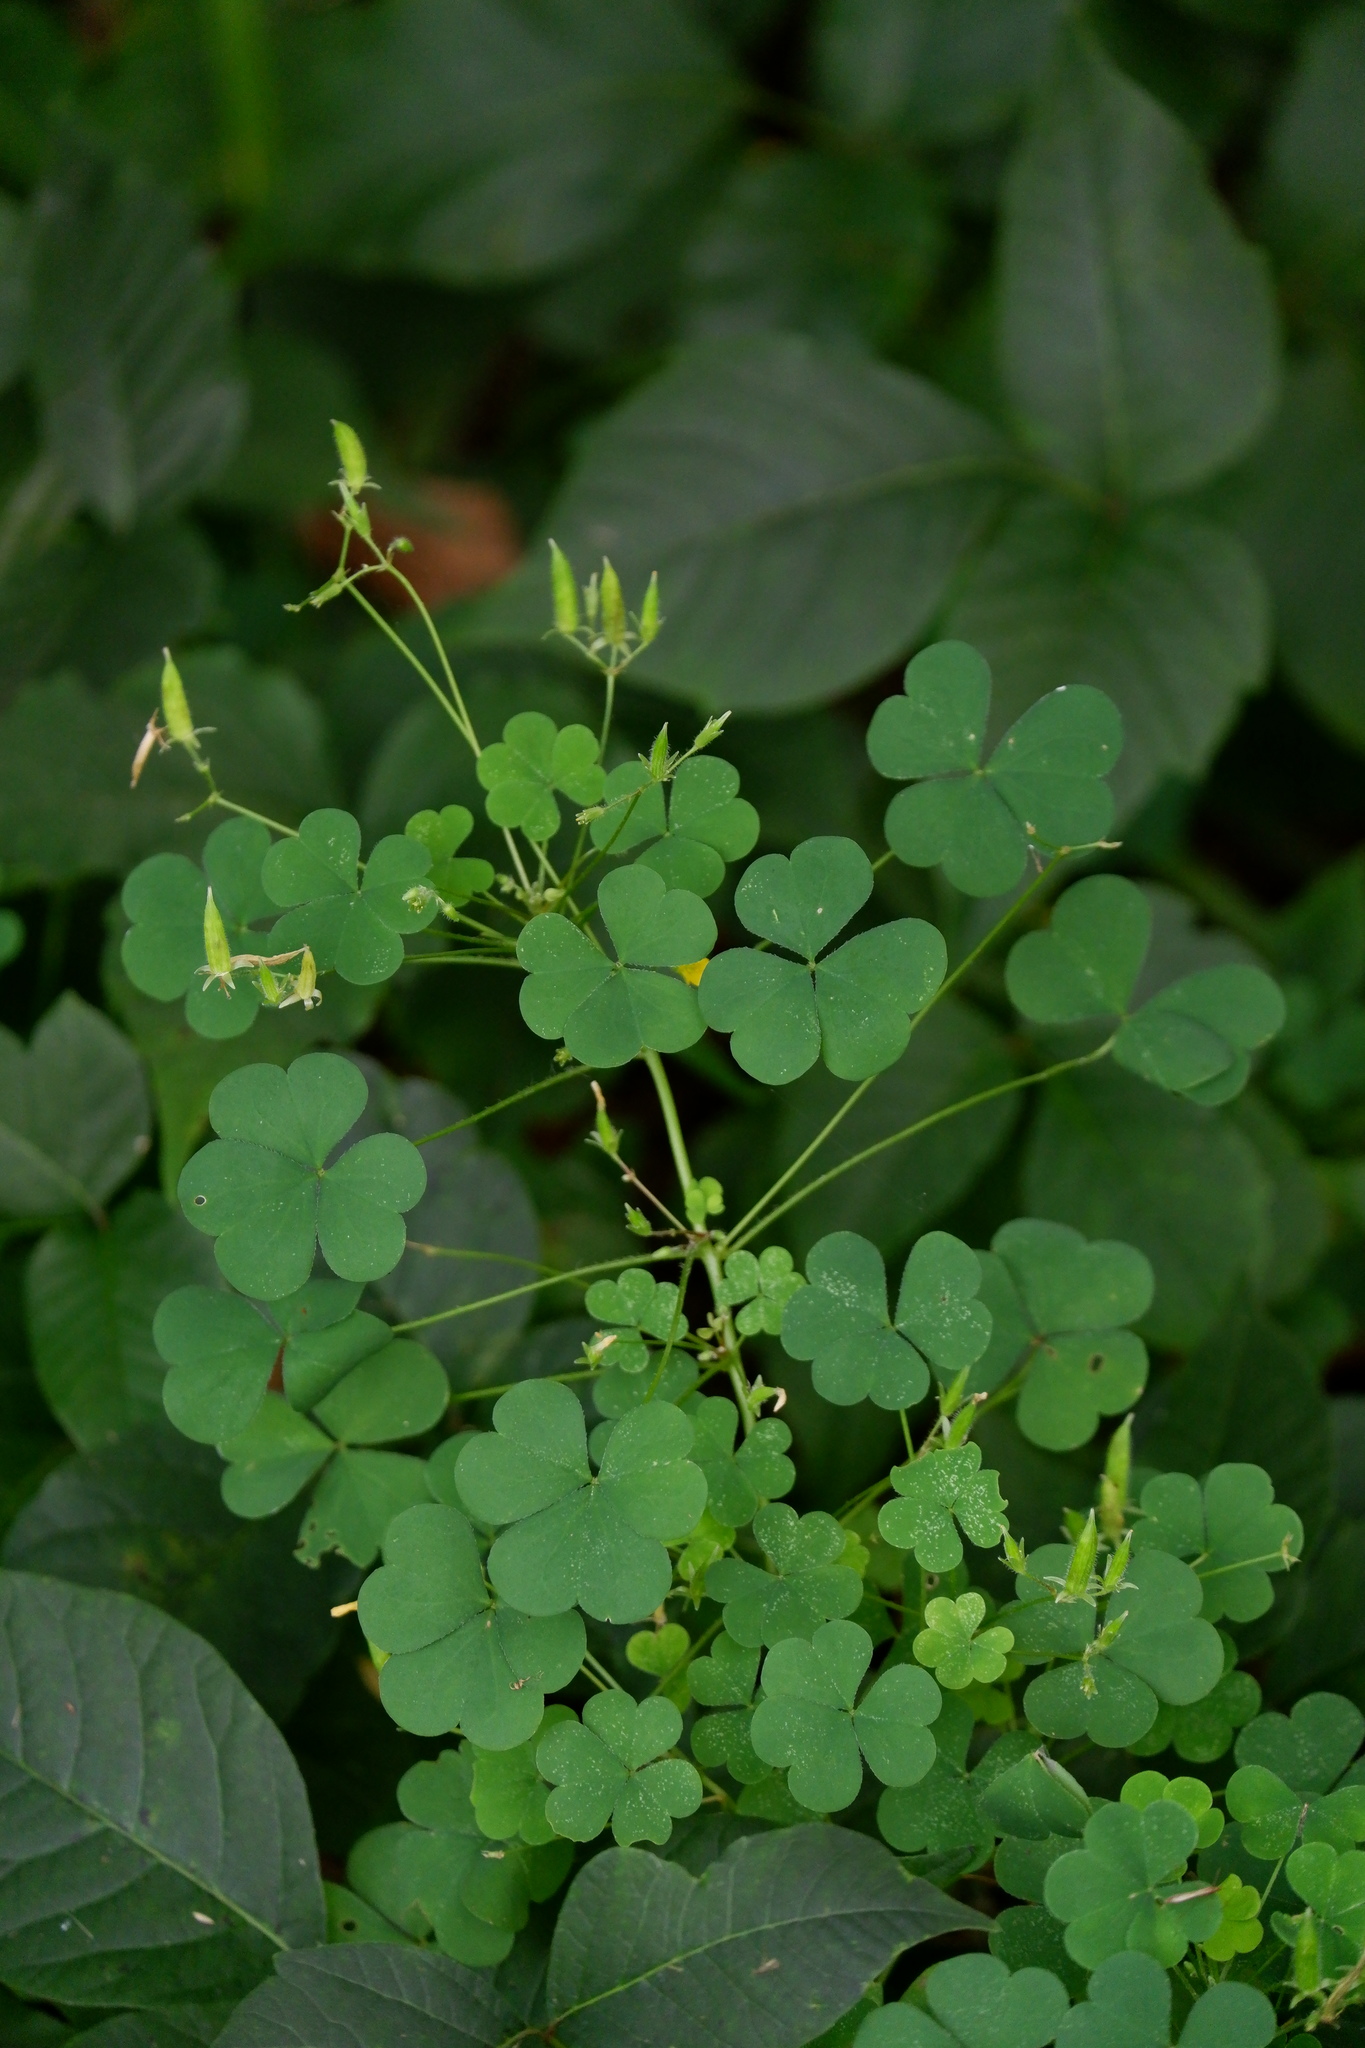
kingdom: Plantae
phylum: Tracheophyta
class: Magnoliopsida
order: Oxalidales
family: Oxalidaceae
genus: Oxalis
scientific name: Oxalis dillenii
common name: Sussex yellow-sorrel
